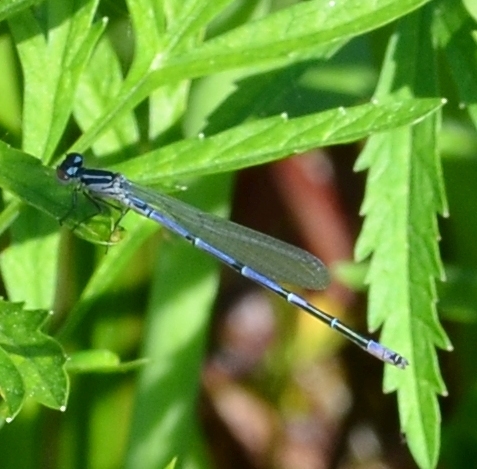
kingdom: Animalia
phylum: Arthropoda
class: Insecta
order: Odonata
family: Coenagrionidae
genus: Coenagrion
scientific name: Coenagrion puella
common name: Azure damselfly
